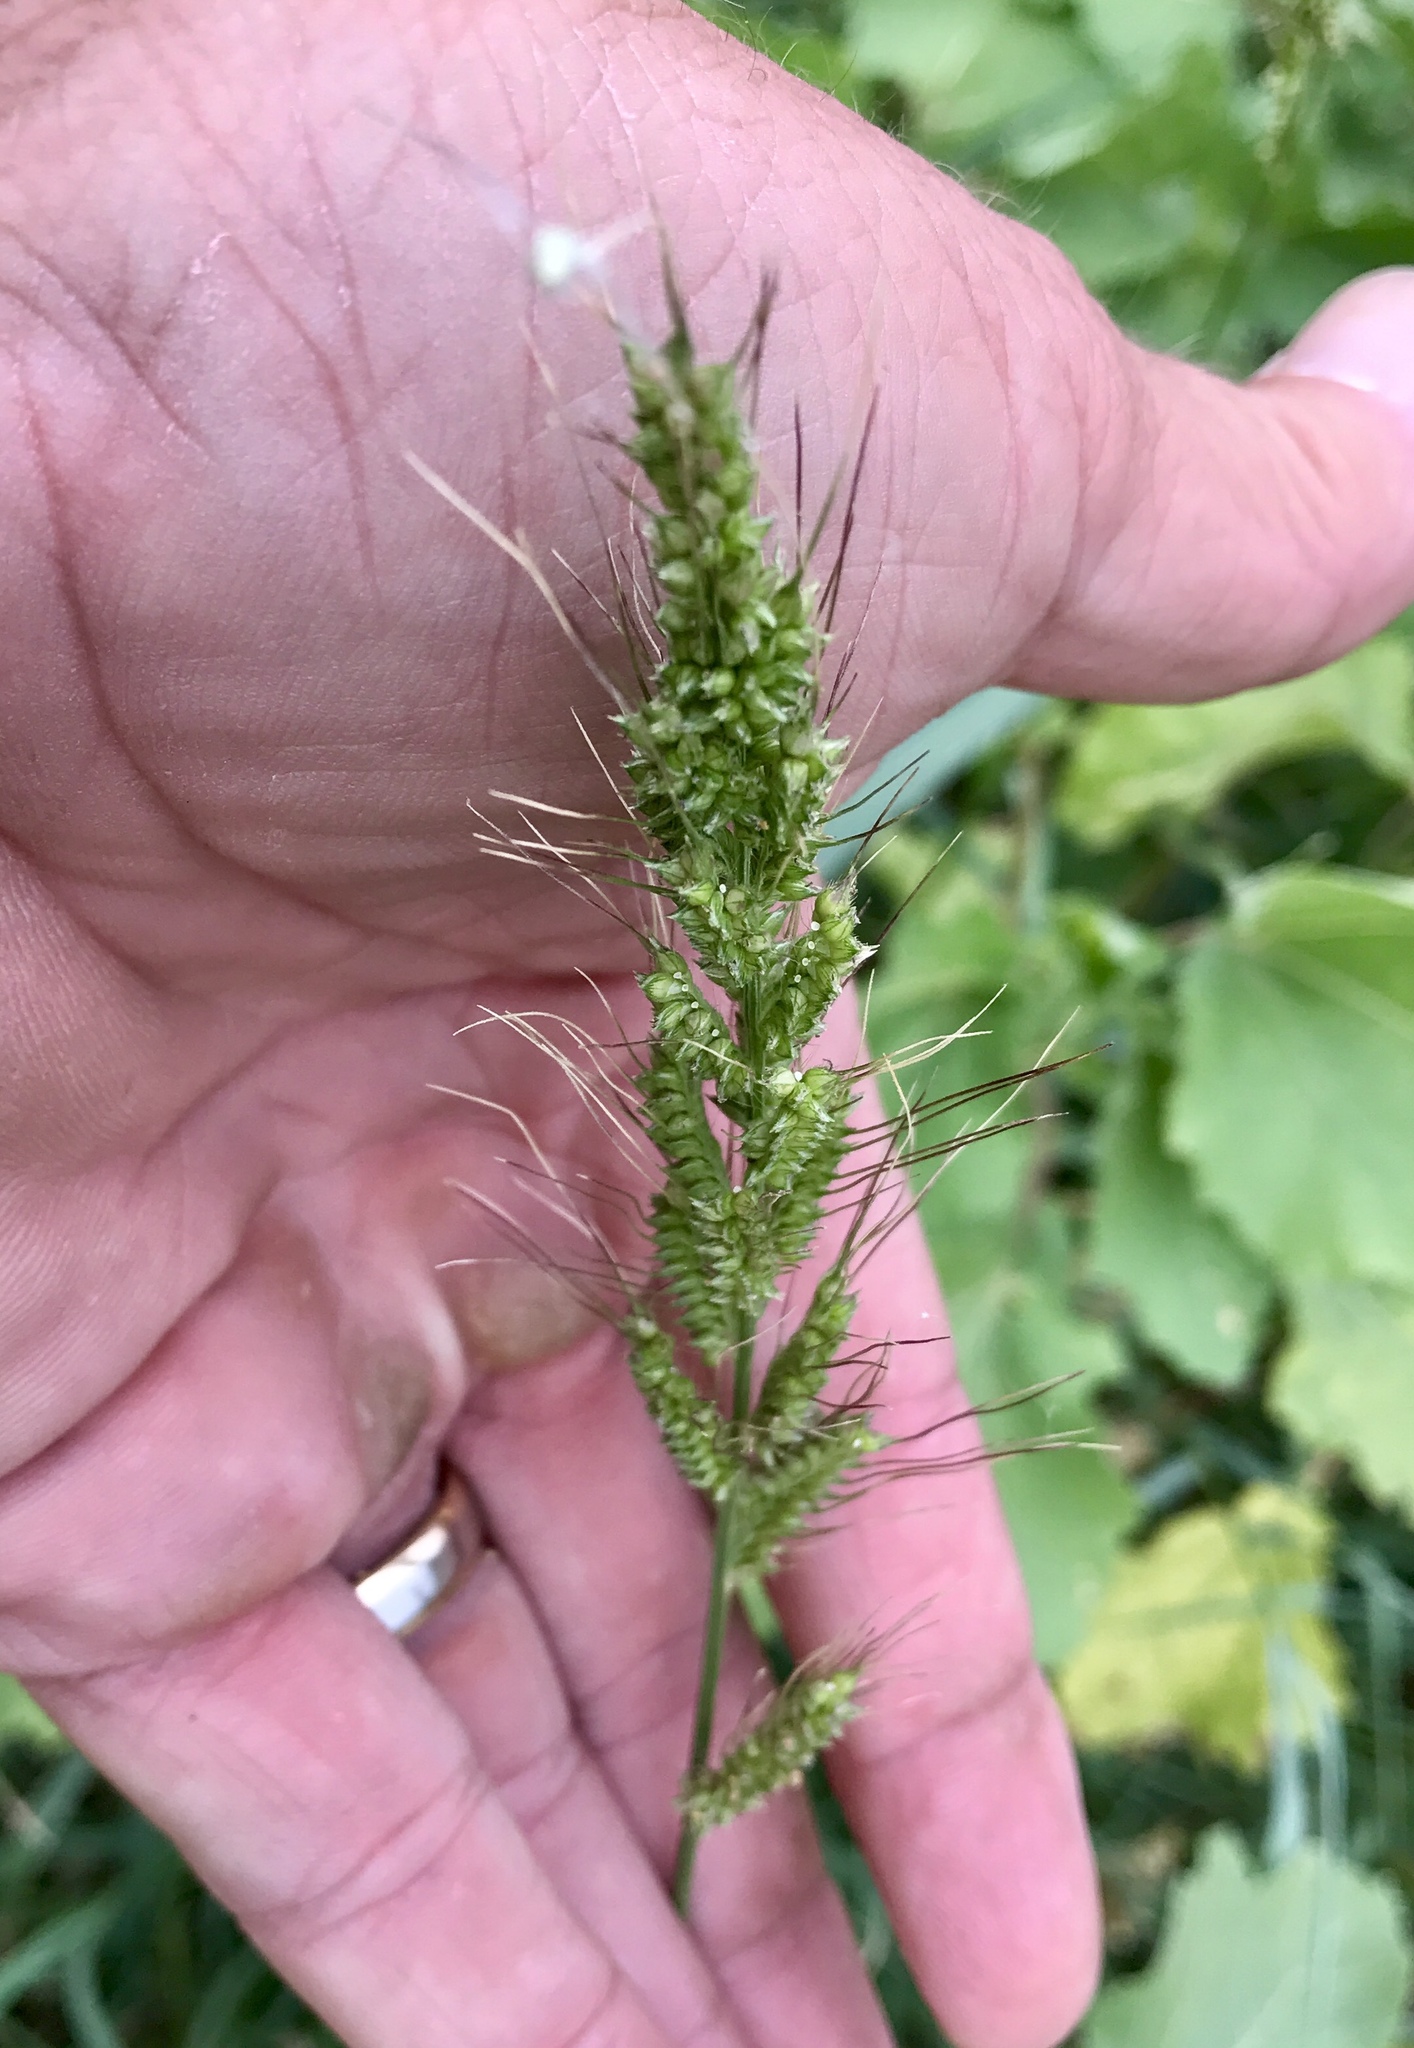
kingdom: Plantae
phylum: Tracheophyta
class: Liliopsida
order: Poales
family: Poaceae
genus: Echinochloa
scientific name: Echinochloa crus-galli
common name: Cockspur
